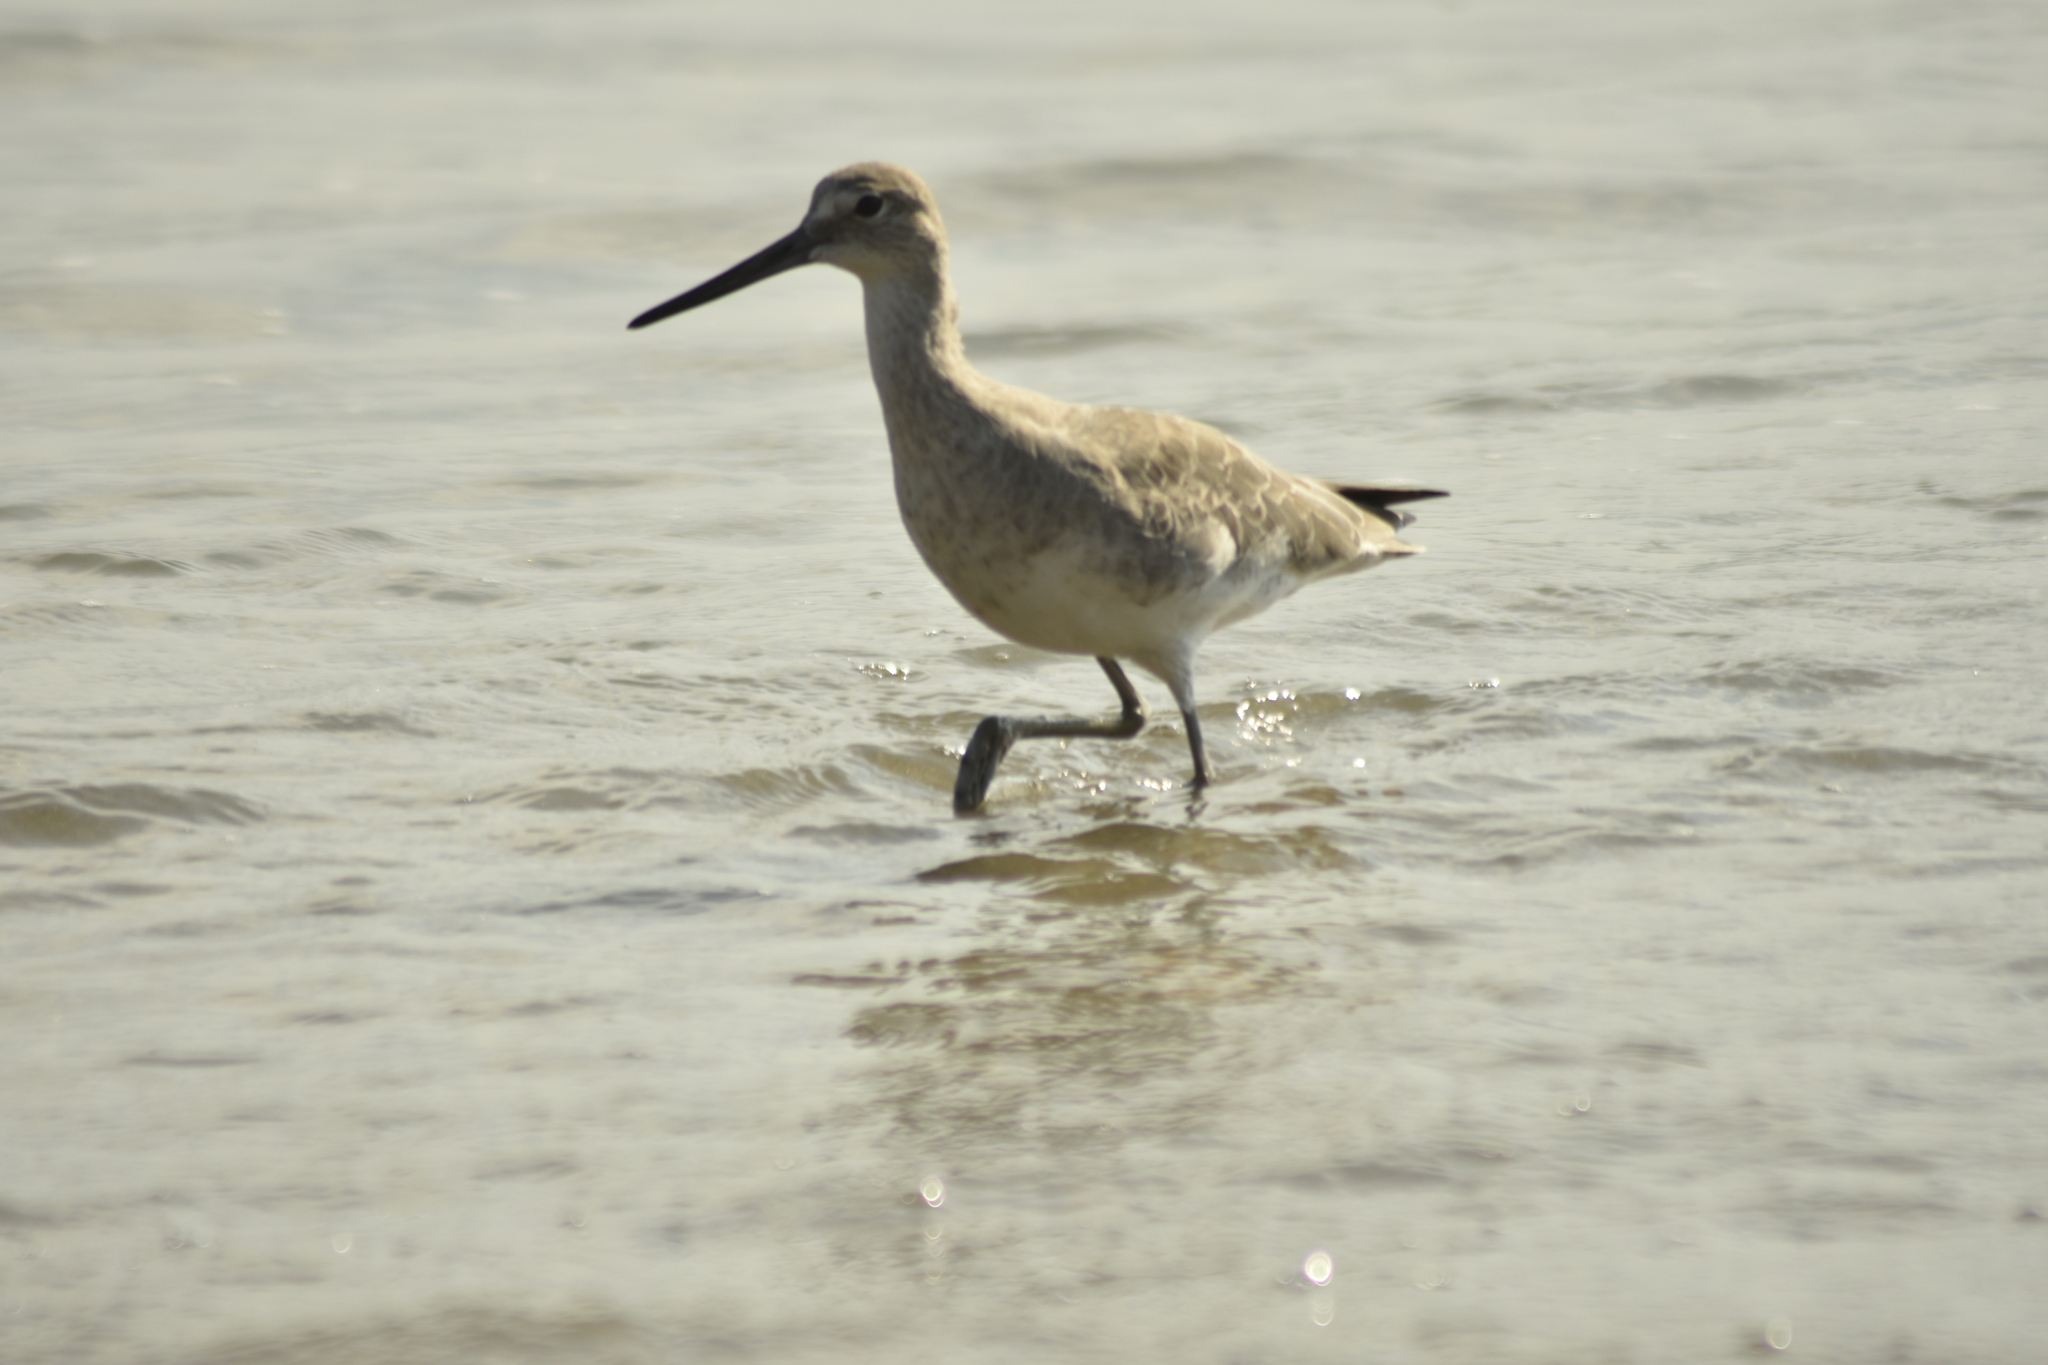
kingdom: Animalia
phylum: Chordata
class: Aves
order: Charadriiformes
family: Scolopacidae
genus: Tringa
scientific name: Tringa semipalmata
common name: Willet
